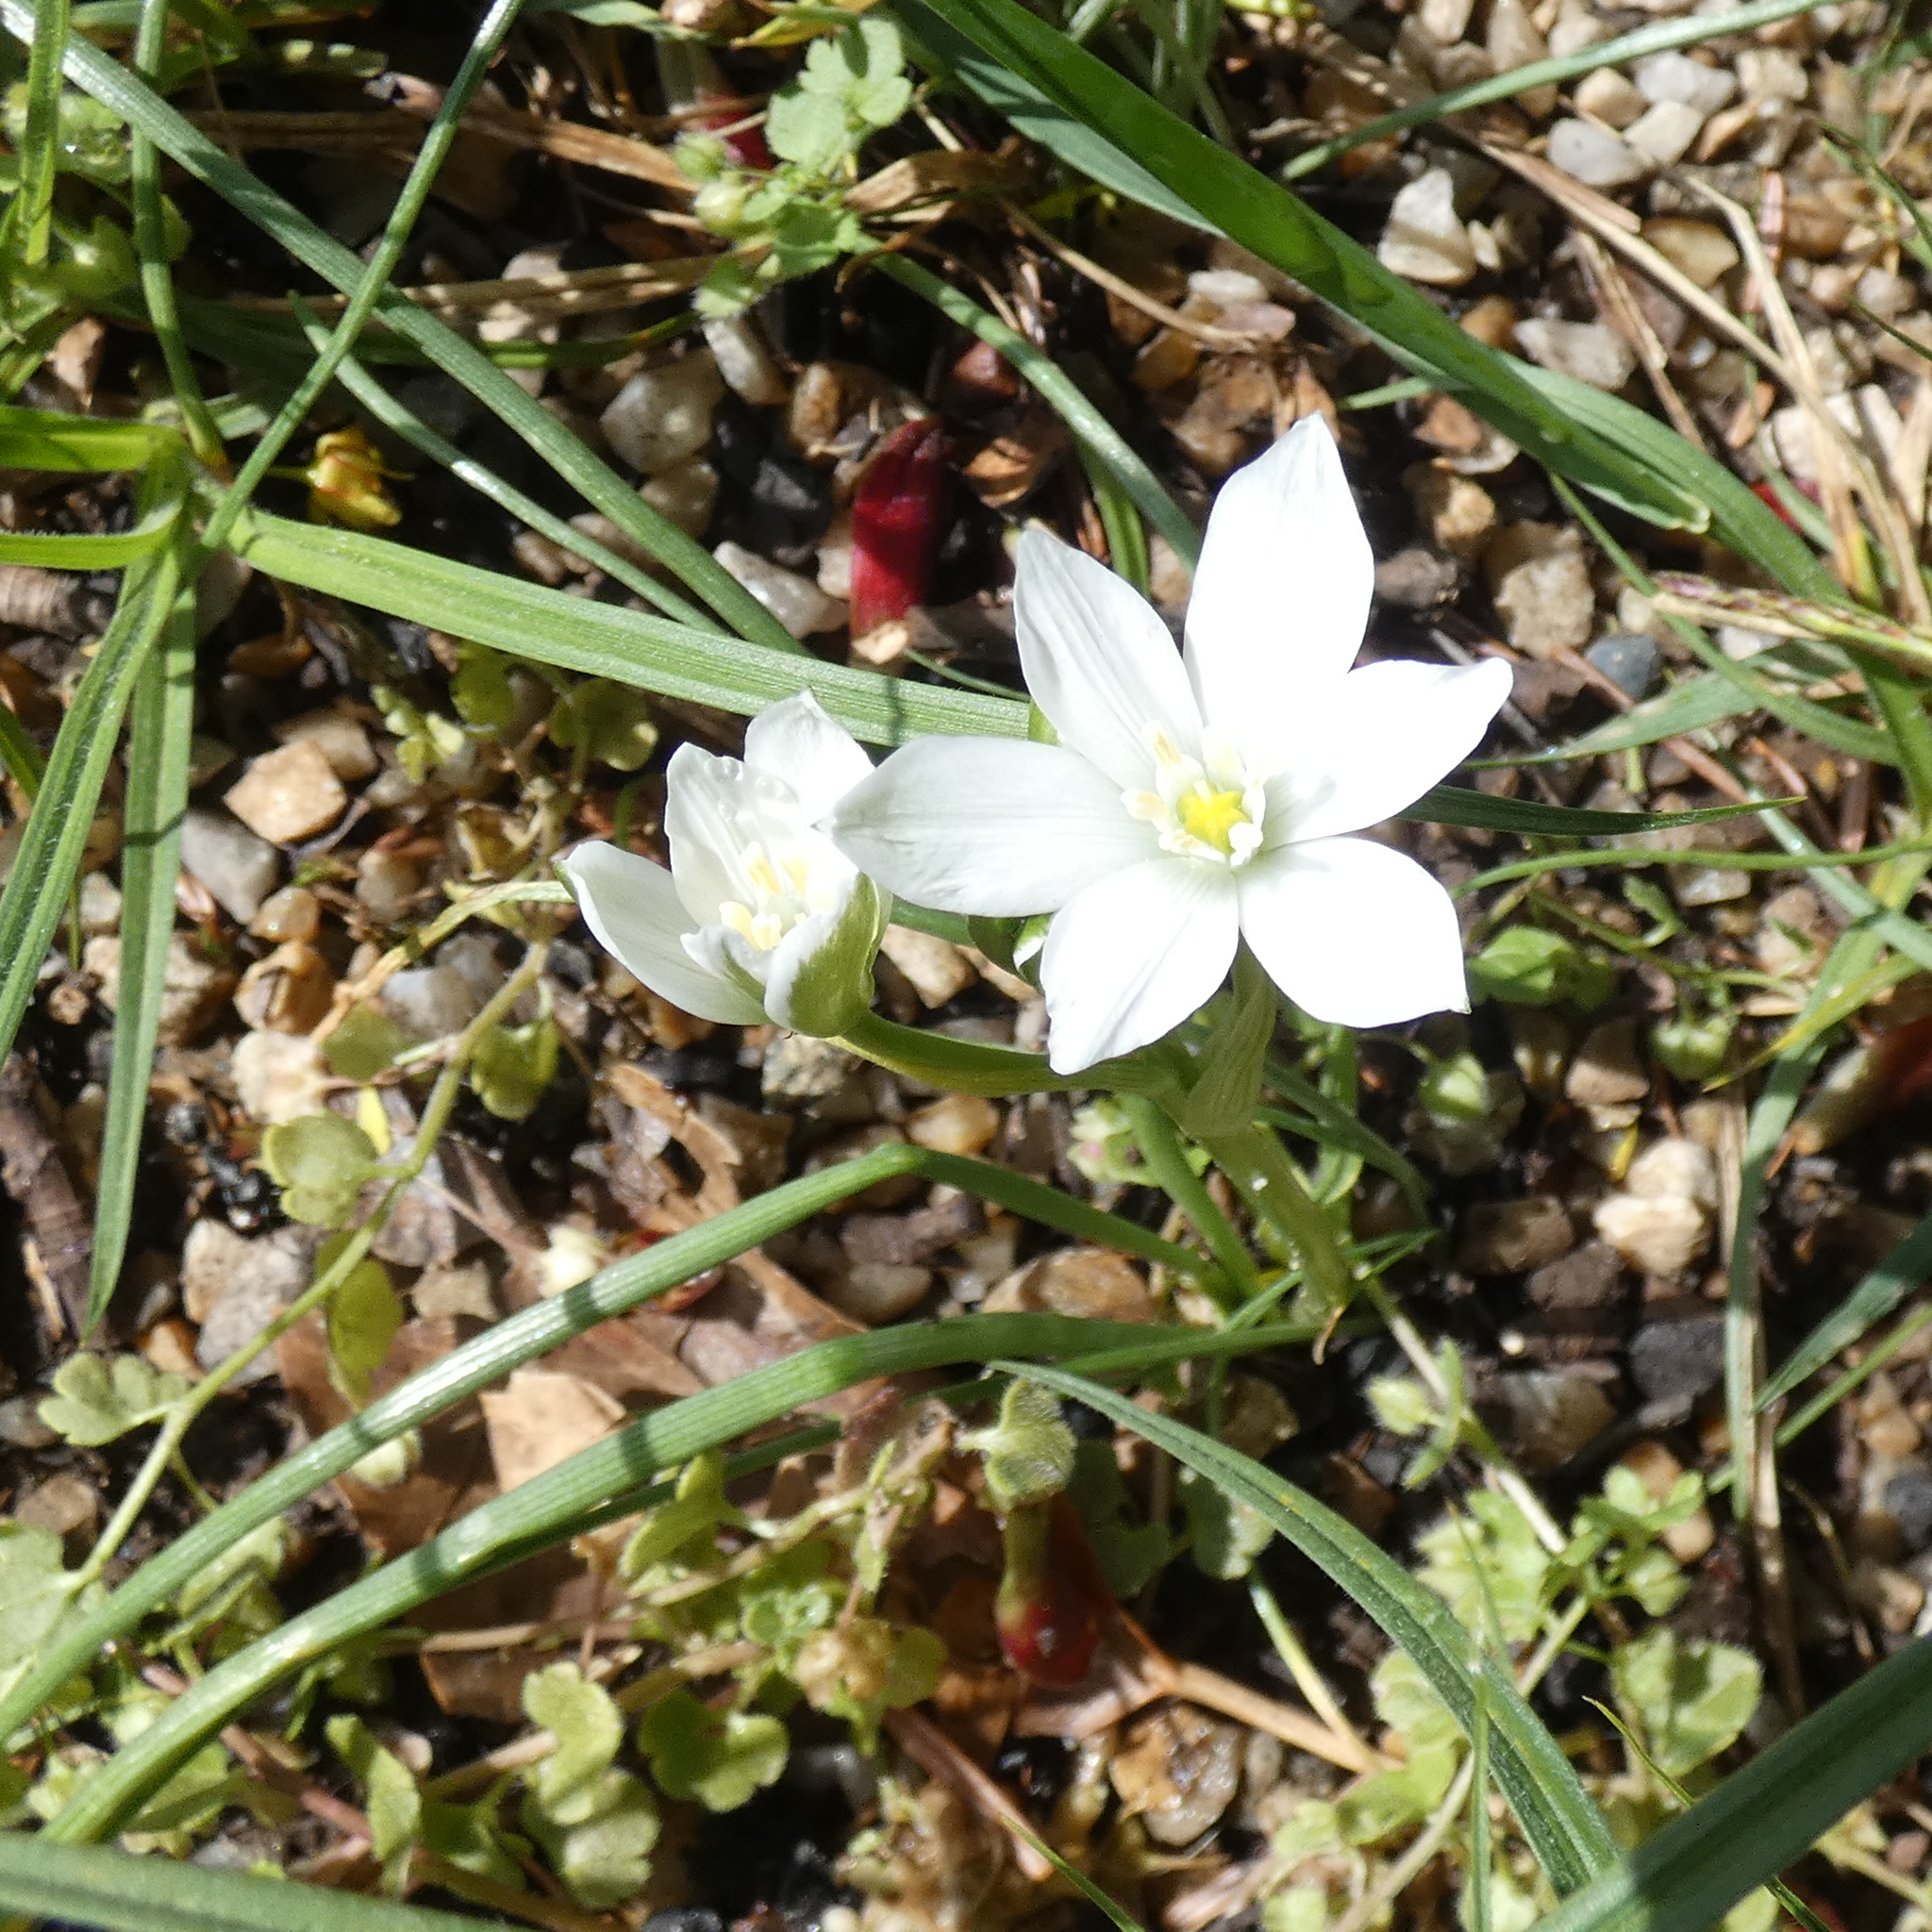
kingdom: Plantae
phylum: Tracheophyta
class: Liliopsida
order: Asparagales
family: Asparagaceae
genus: Ornithogalum
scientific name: Ornithogalum orthophyllum
